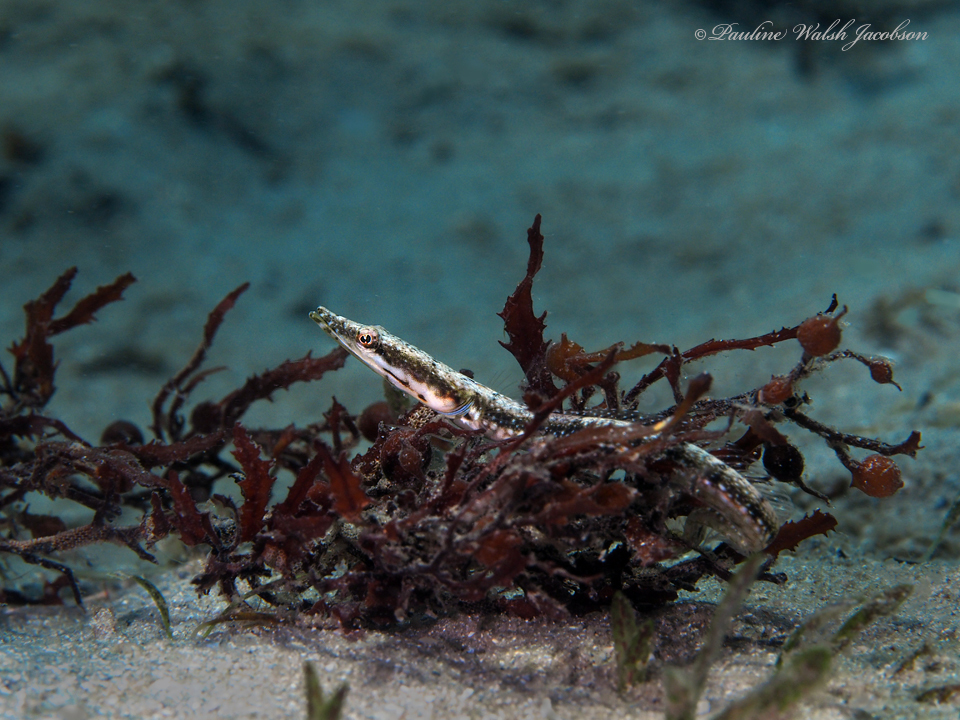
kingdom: Animalia
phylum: Chordata
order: Perciformes
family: Chaenopsidae
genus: Chaenopsis
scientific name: Chaenopsis ocellata
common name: Bluethroat pikeblenny
